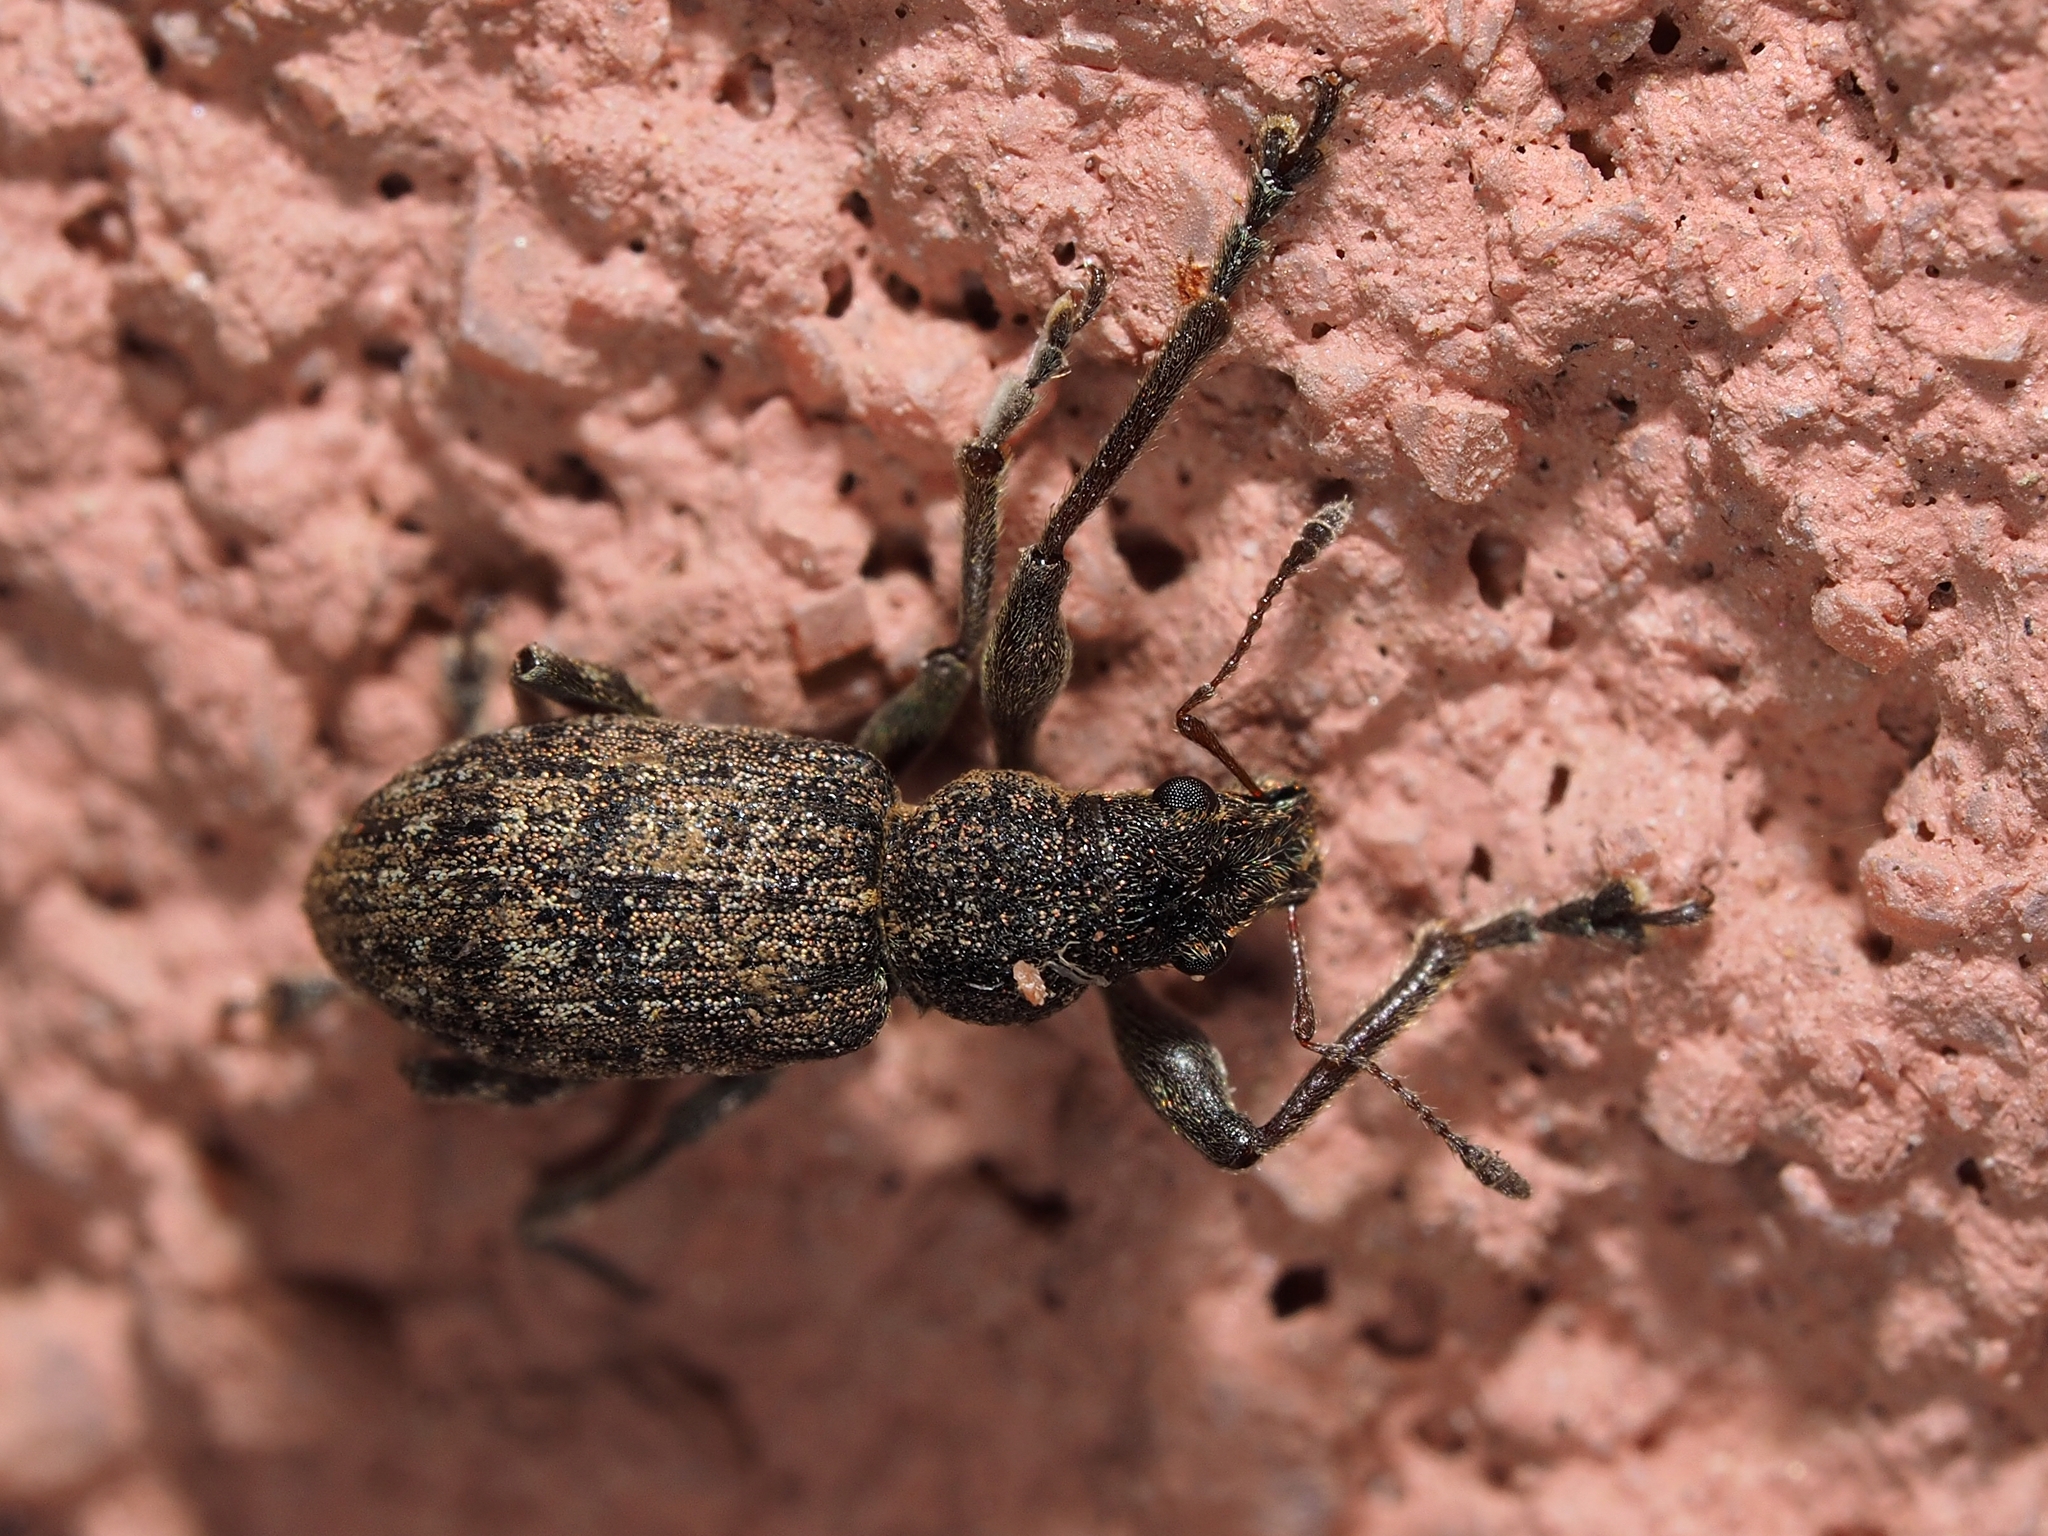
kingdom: Animalia
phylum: Arthropoda
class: Insecta
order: Coleoptera
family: Curculionidae
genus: Coelositona
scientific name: Coelositona limosus
